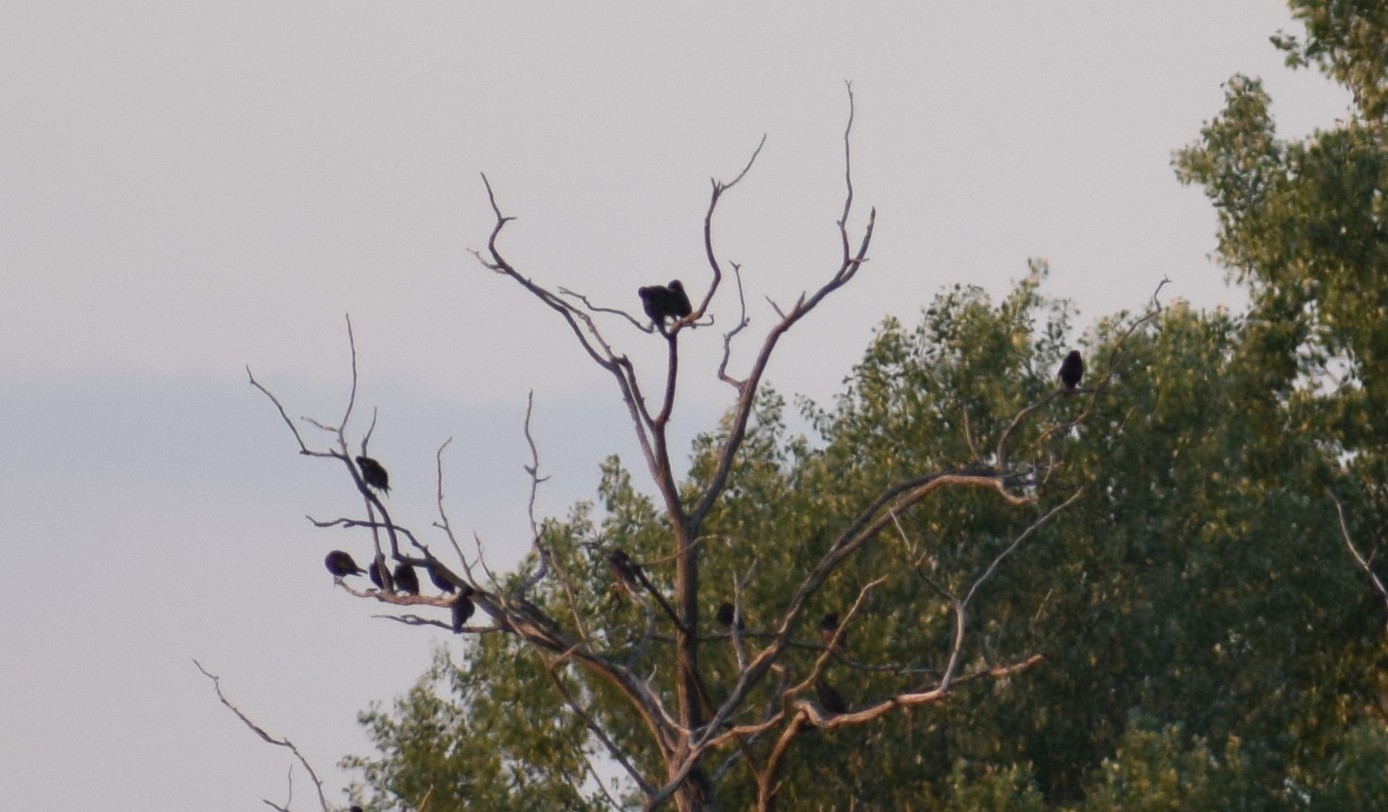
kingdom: Animalia
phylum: Chordata
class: Aves
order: Passeriformes
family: Sturnidae
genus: Sturnus
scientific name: Sturnus vulgaris
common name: Common starling
